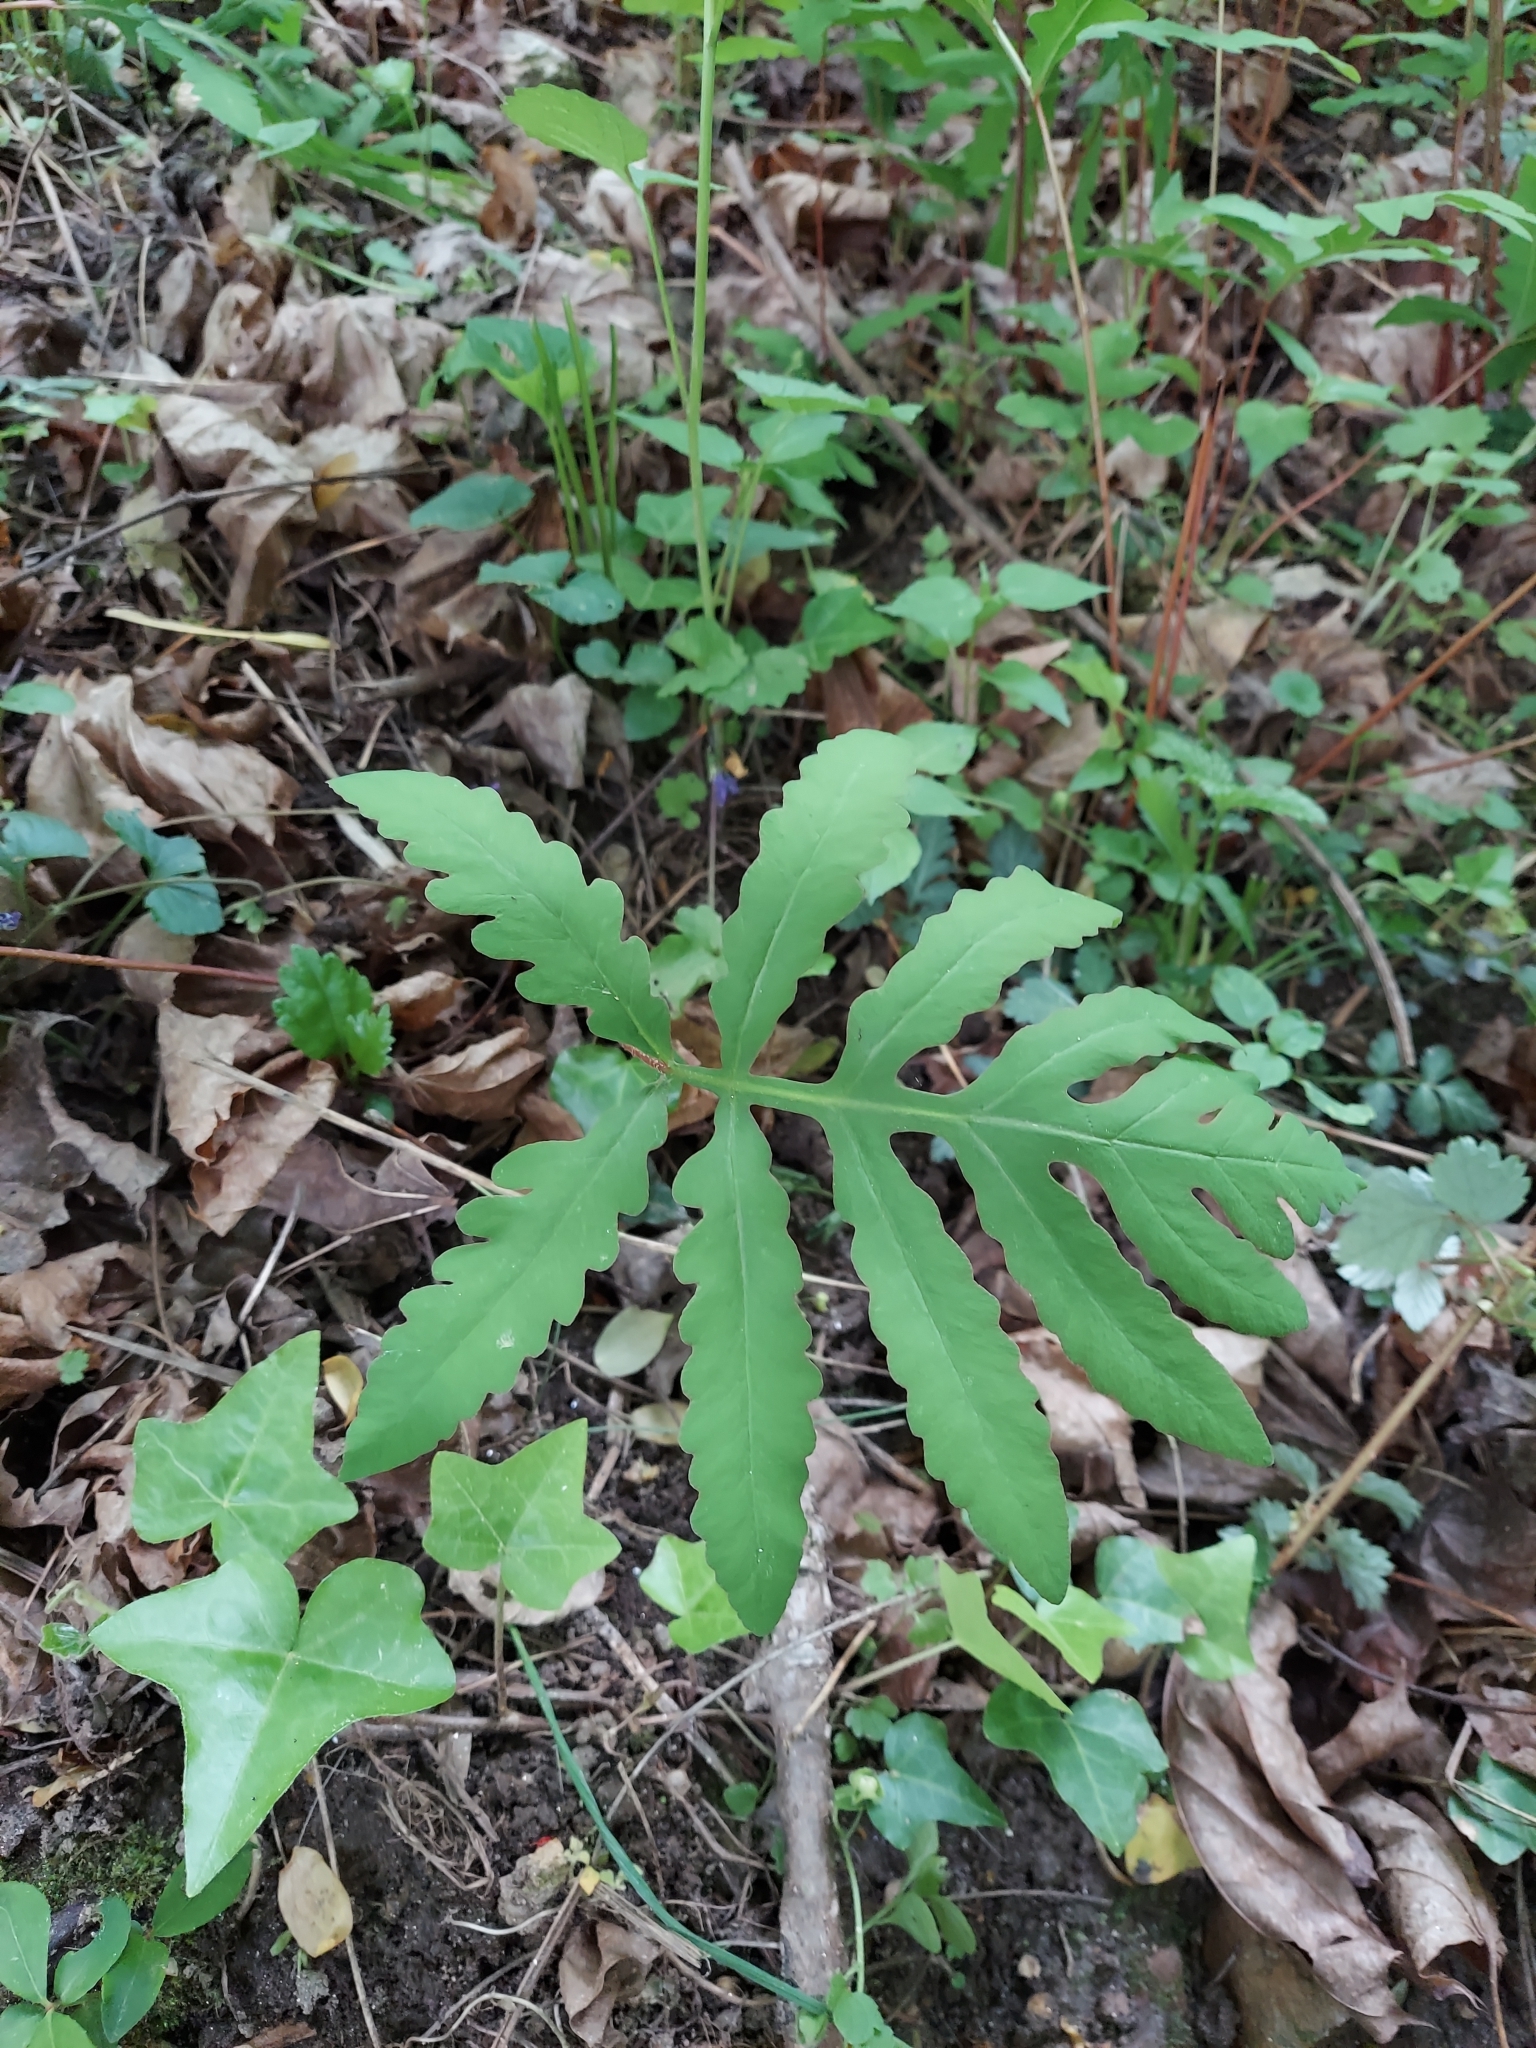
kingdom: Plantae
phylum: Tracheophyta
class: Polypodiopsida
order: Polypodiales
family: Onocleaceae
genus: Onoclea
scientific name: Onoclea sensibilis
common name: Sensitive fern
